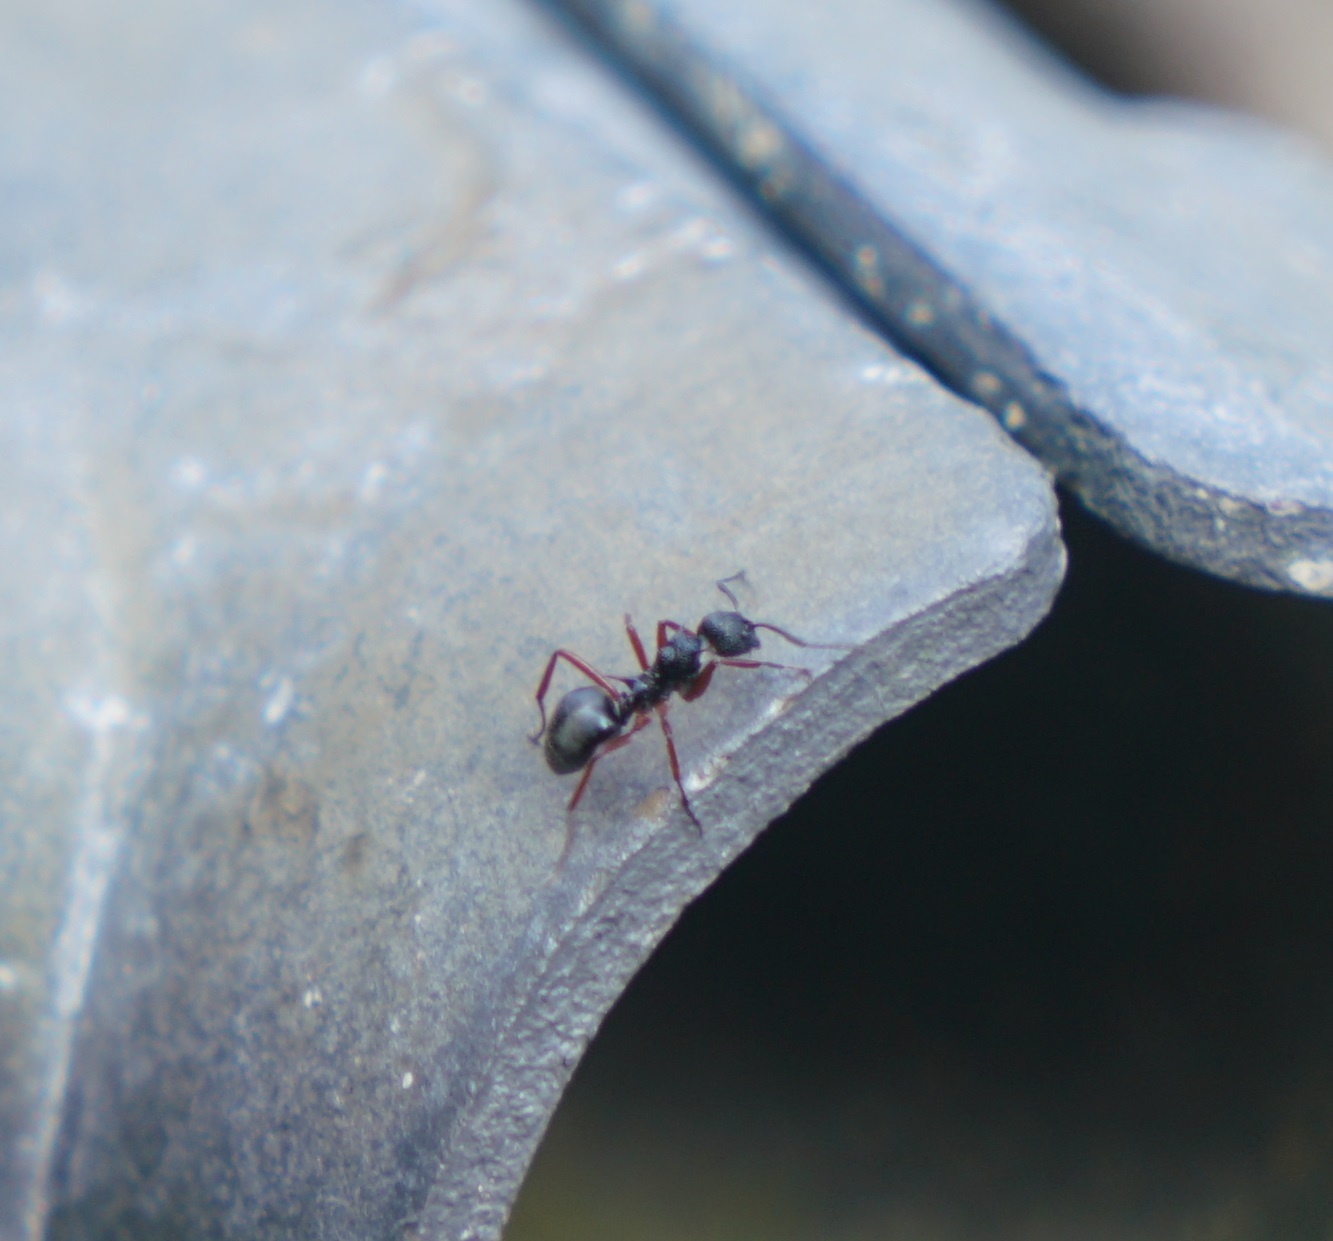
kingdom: Animalia
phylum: Arthropoda
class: Insecta
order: Hymenoptera
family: Formicidae
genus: Dolichoderus
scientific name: Dolichoderus doriae
